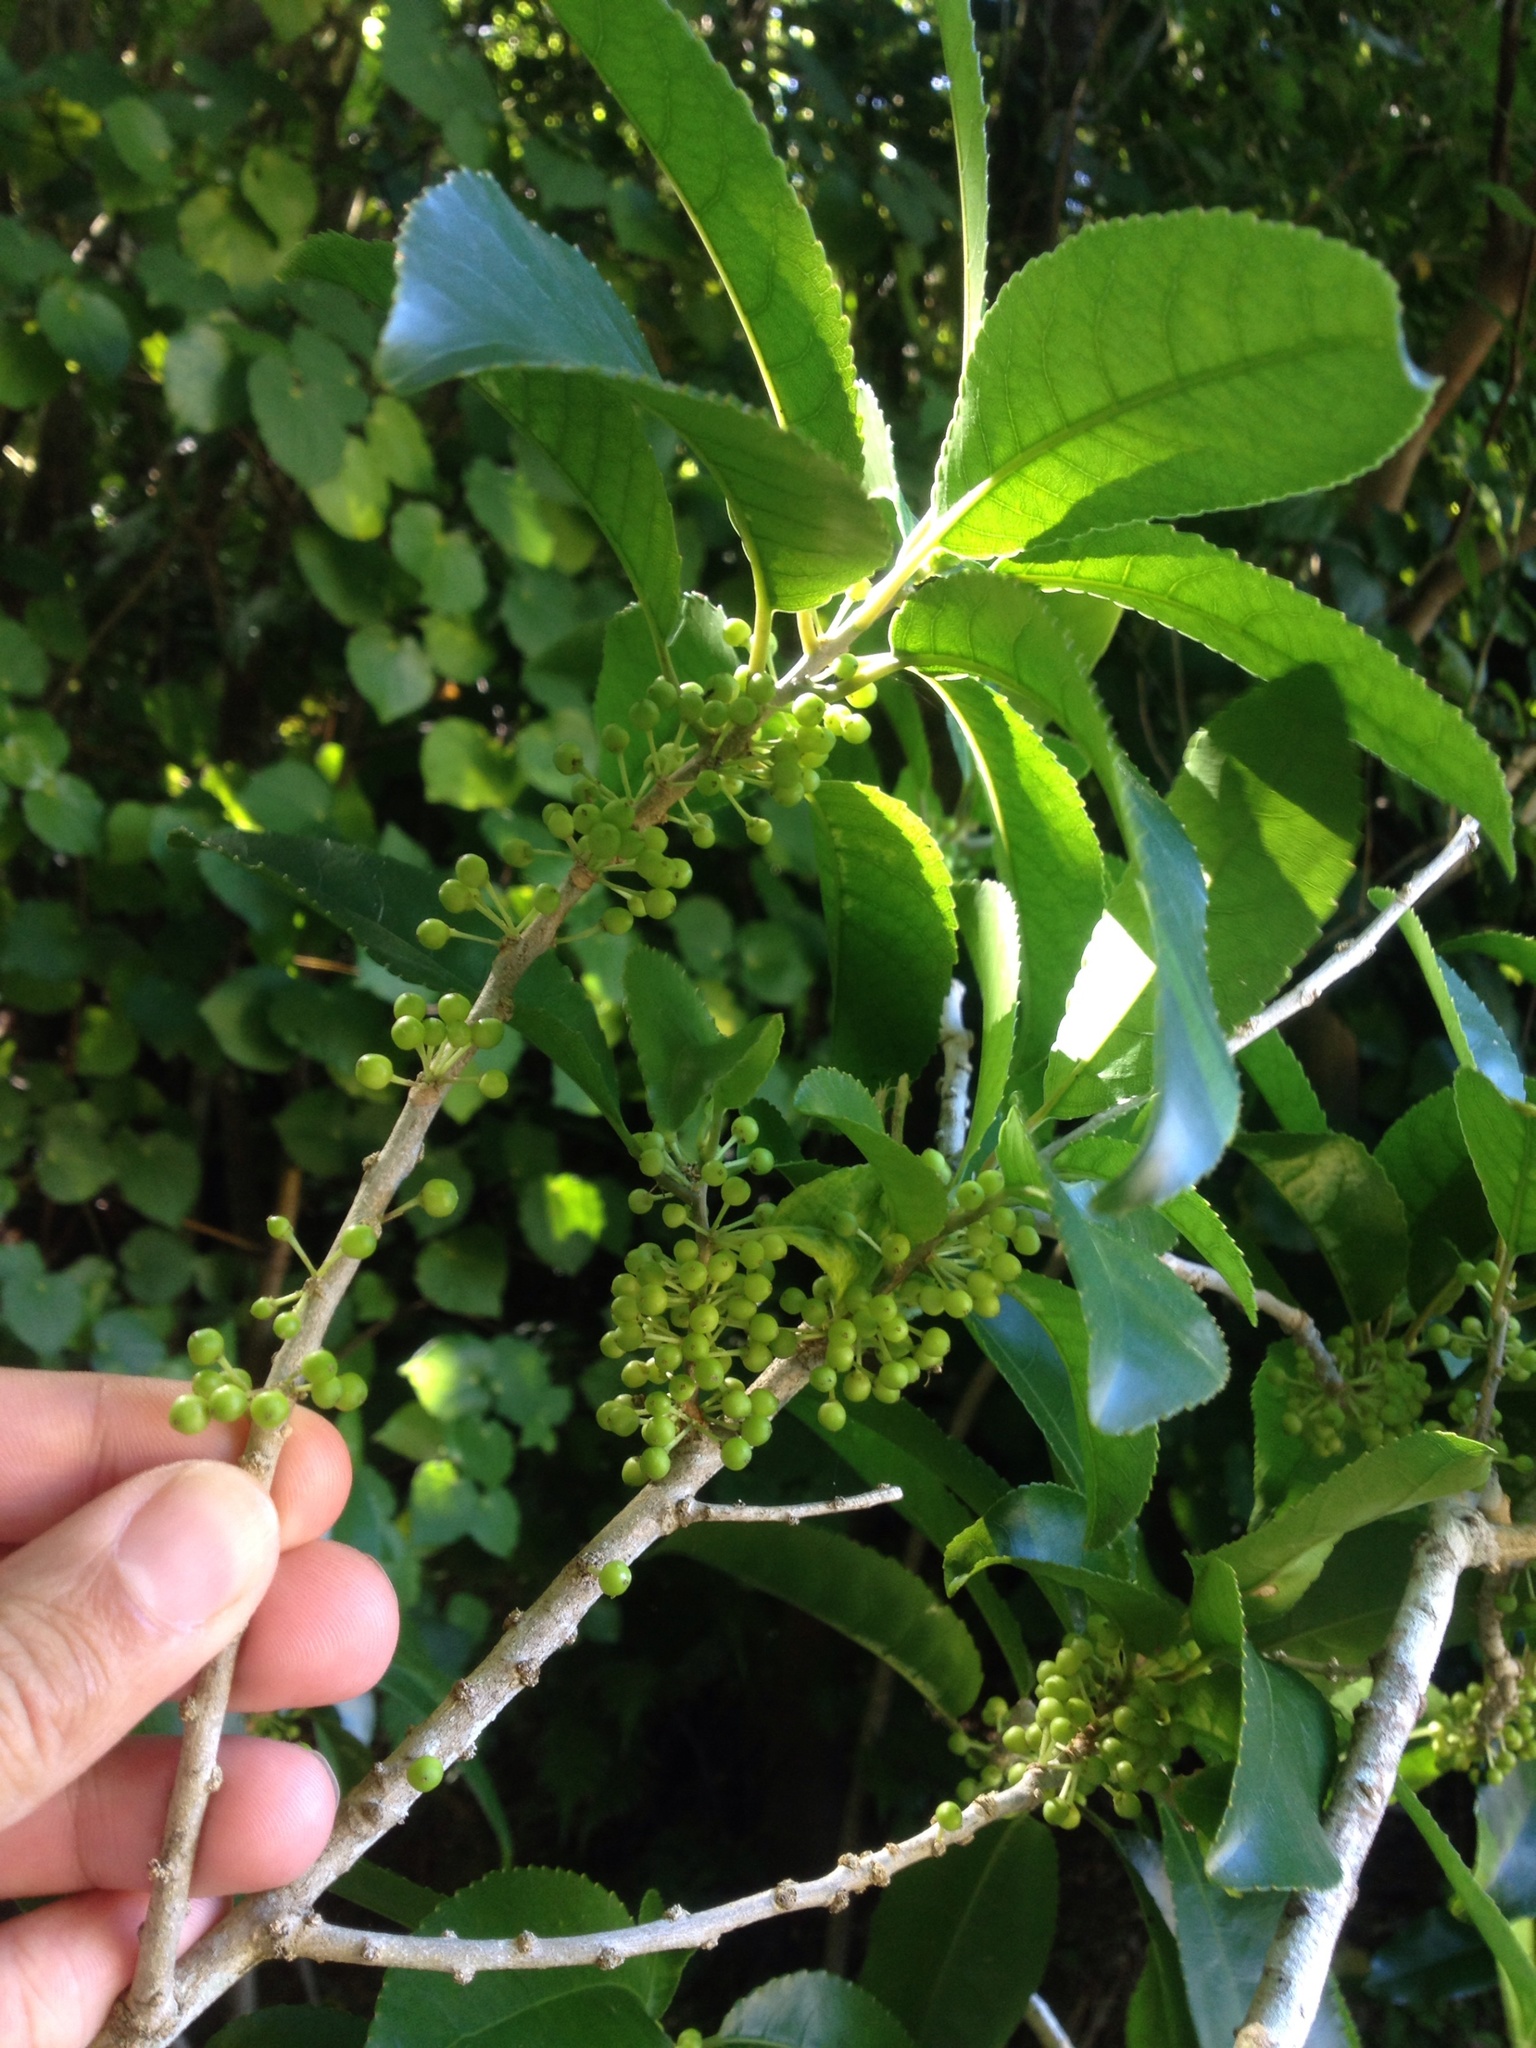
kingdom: Plantae
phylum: Tracheophyta
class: Magnoliopsida
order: Malpighiales
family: Violaceae
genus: Melicytus
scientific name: Melicytus ramiflorus
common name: Mahoe
